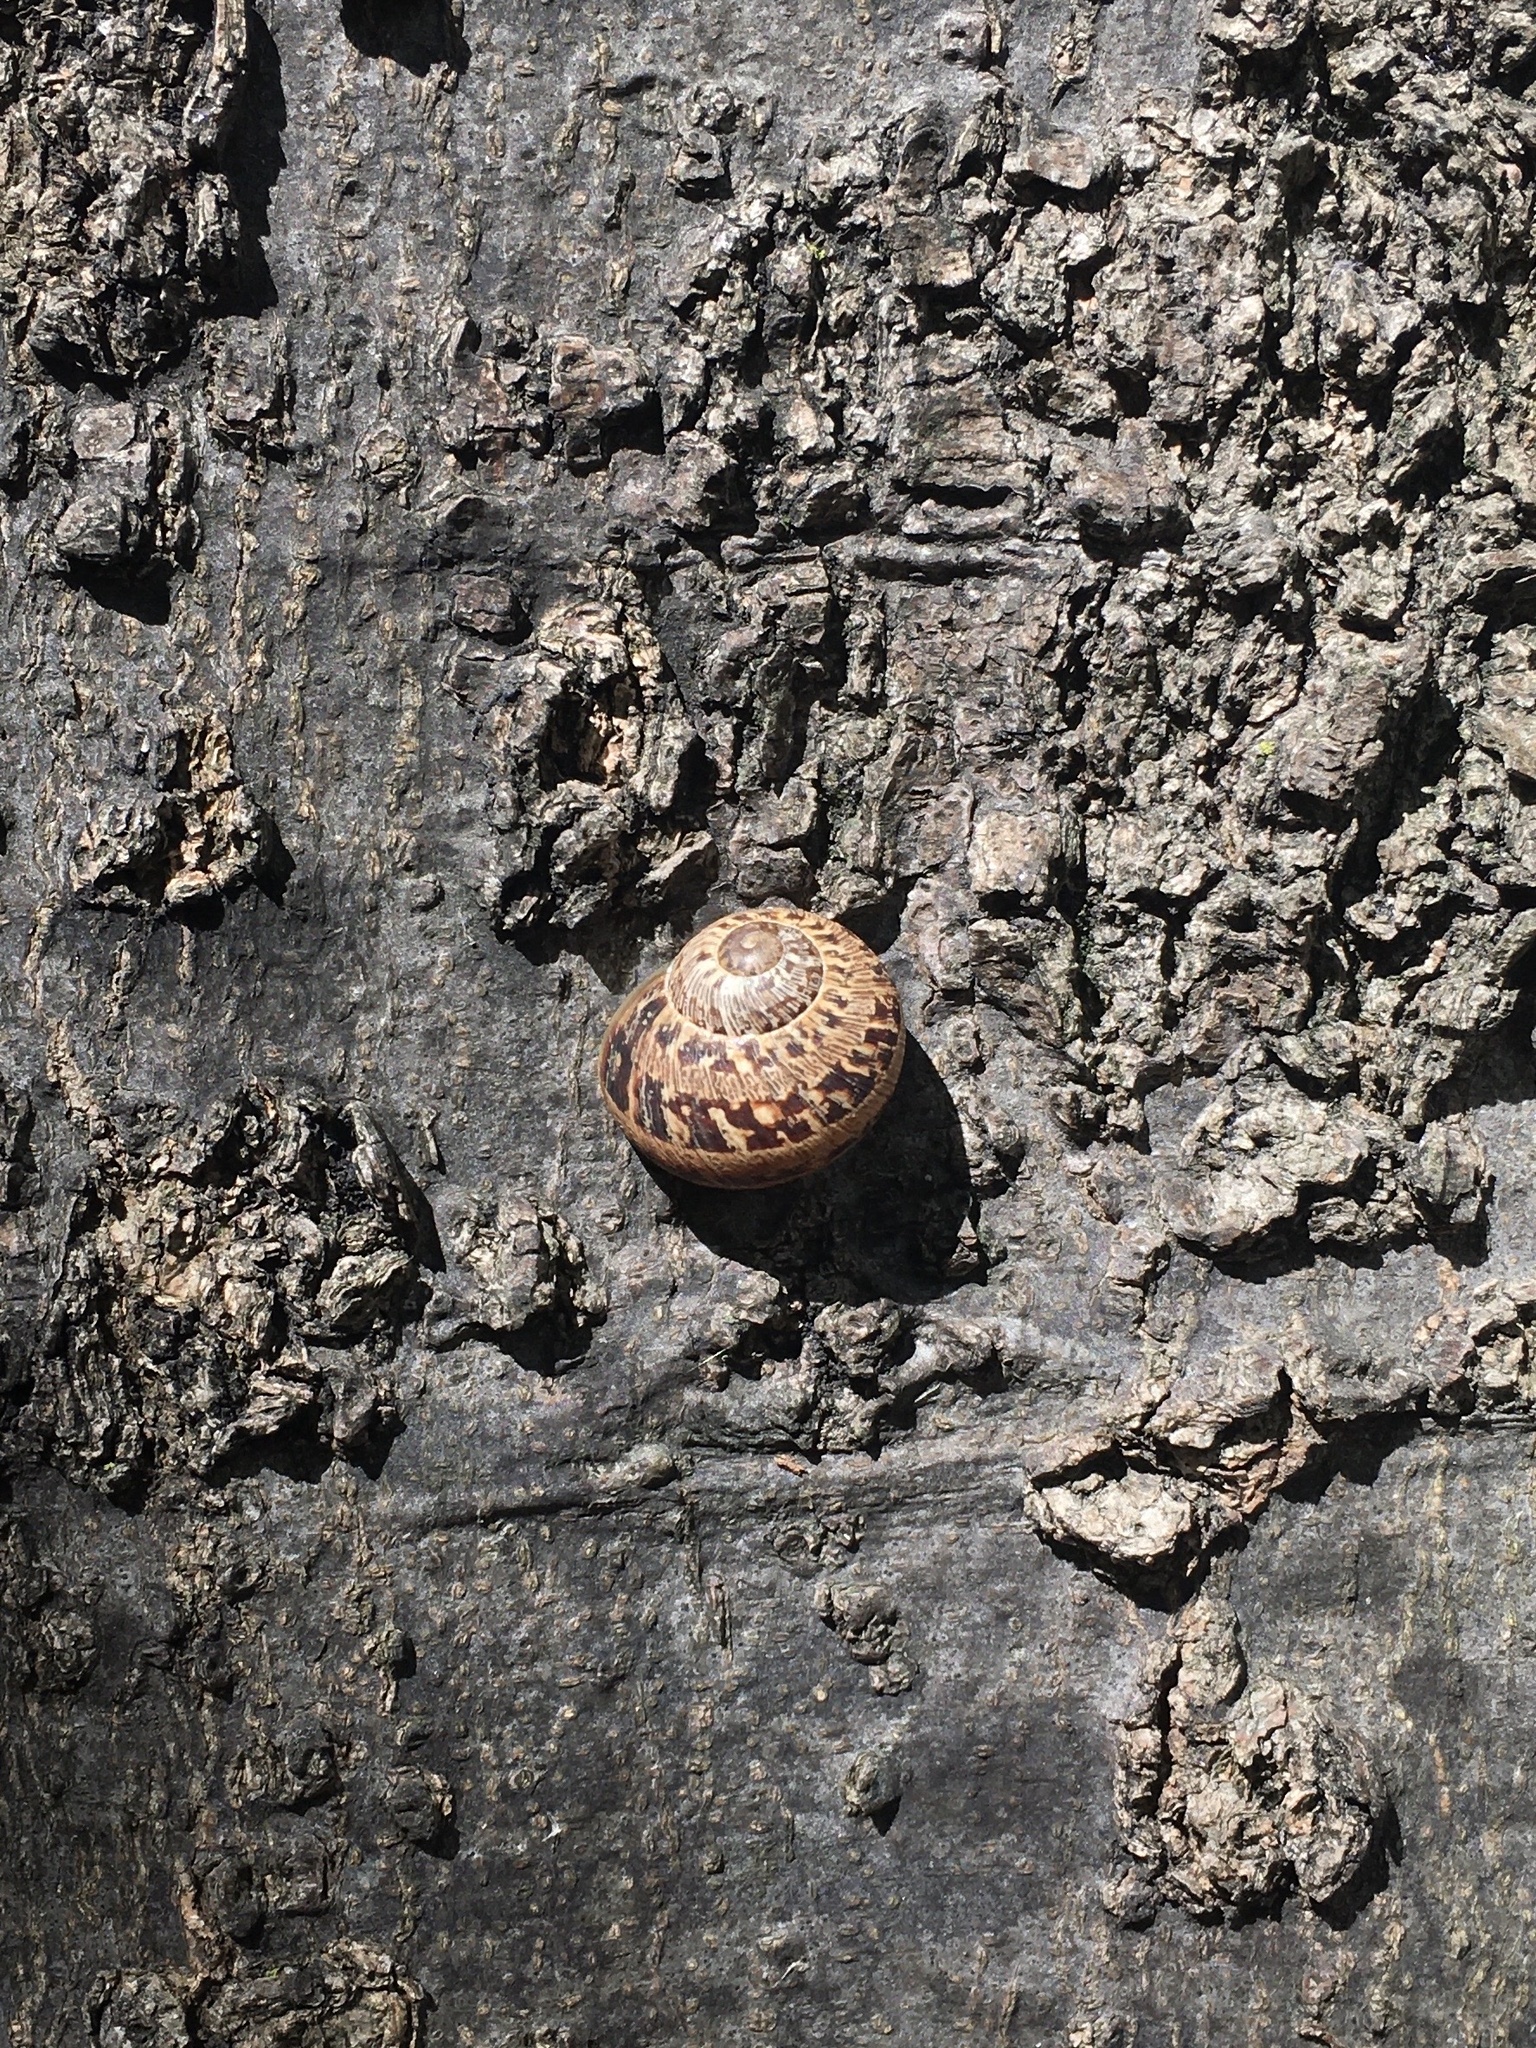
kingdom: Animalia
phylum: Mollusca
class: Gastropoda
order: Stylommatophora
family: Helicidae
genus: Cornu
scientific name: Cornu aspersum
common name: Brown garden snail
